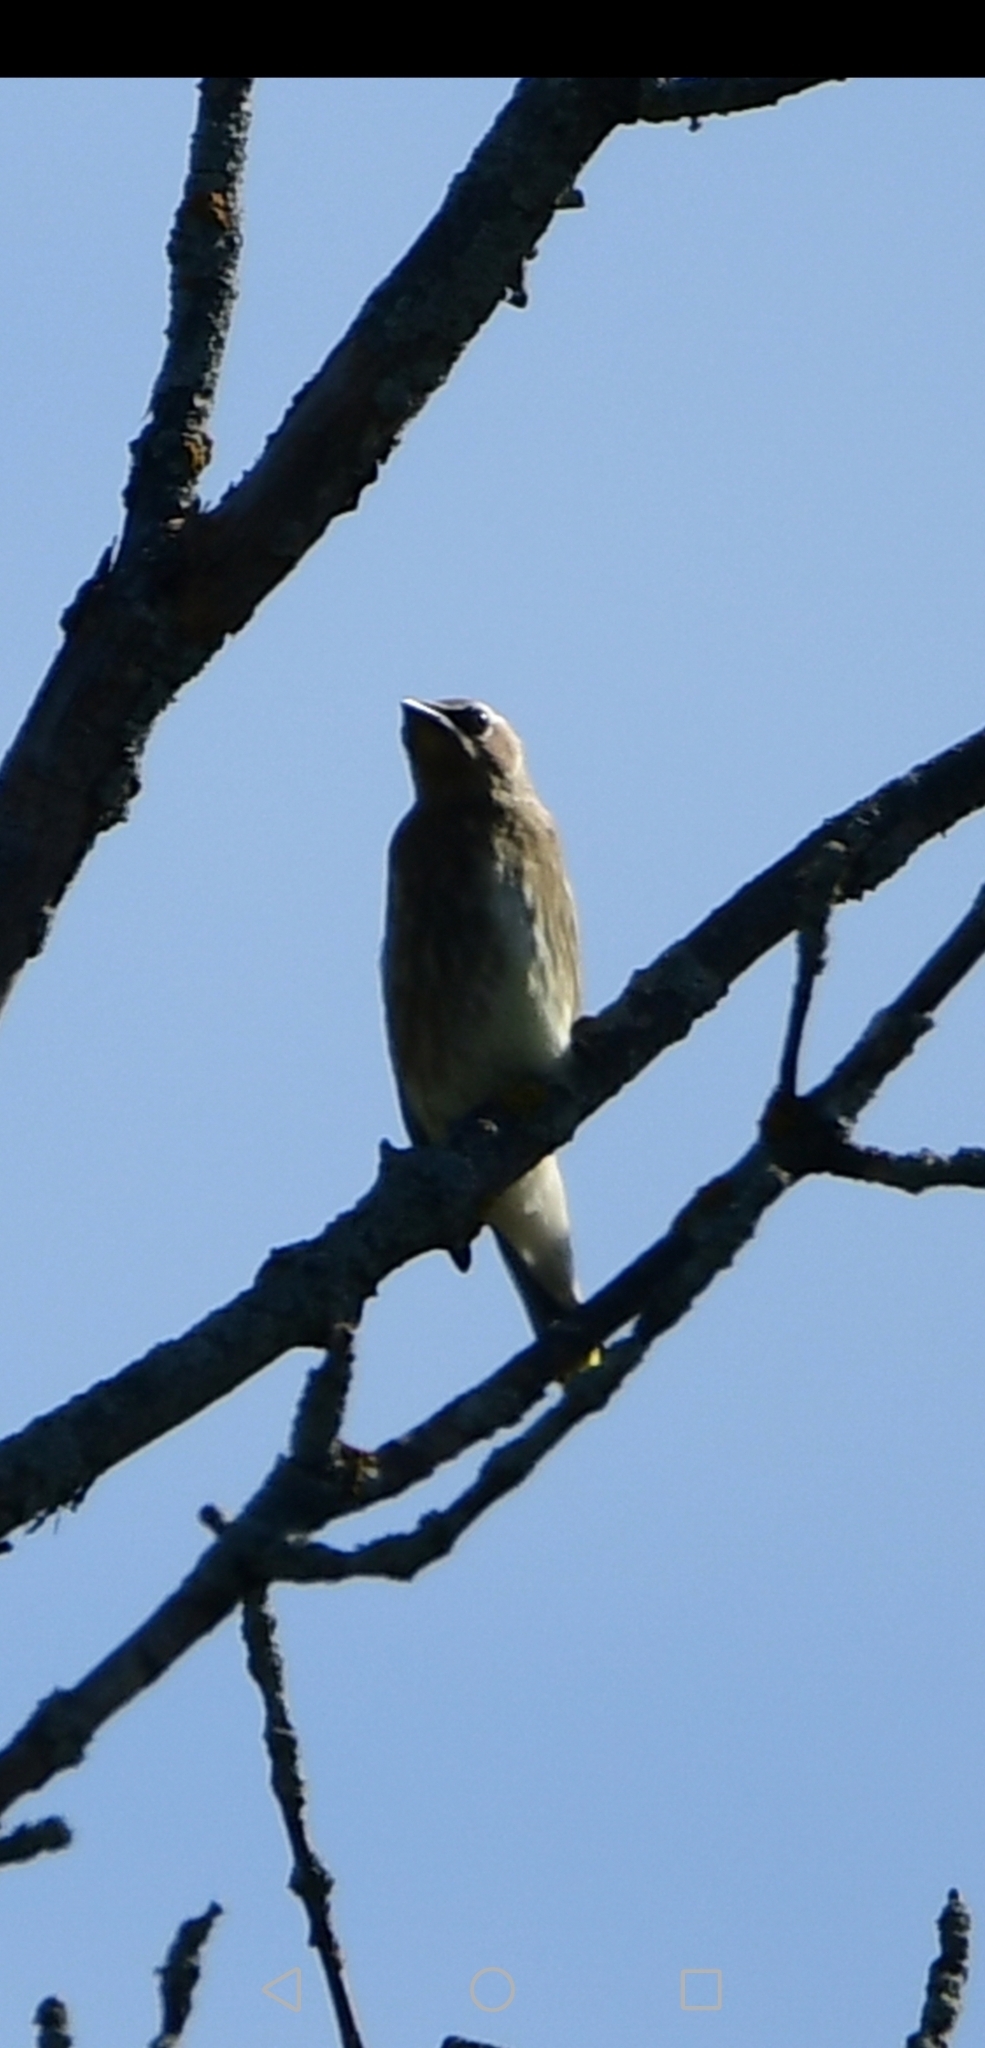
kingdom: Animalia
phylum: Chordata
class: Aves
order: Passeriformes
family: Bombycillidae
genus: Bombycilla
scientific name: Bombycilla cedrorum
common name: Cedar waxwing
